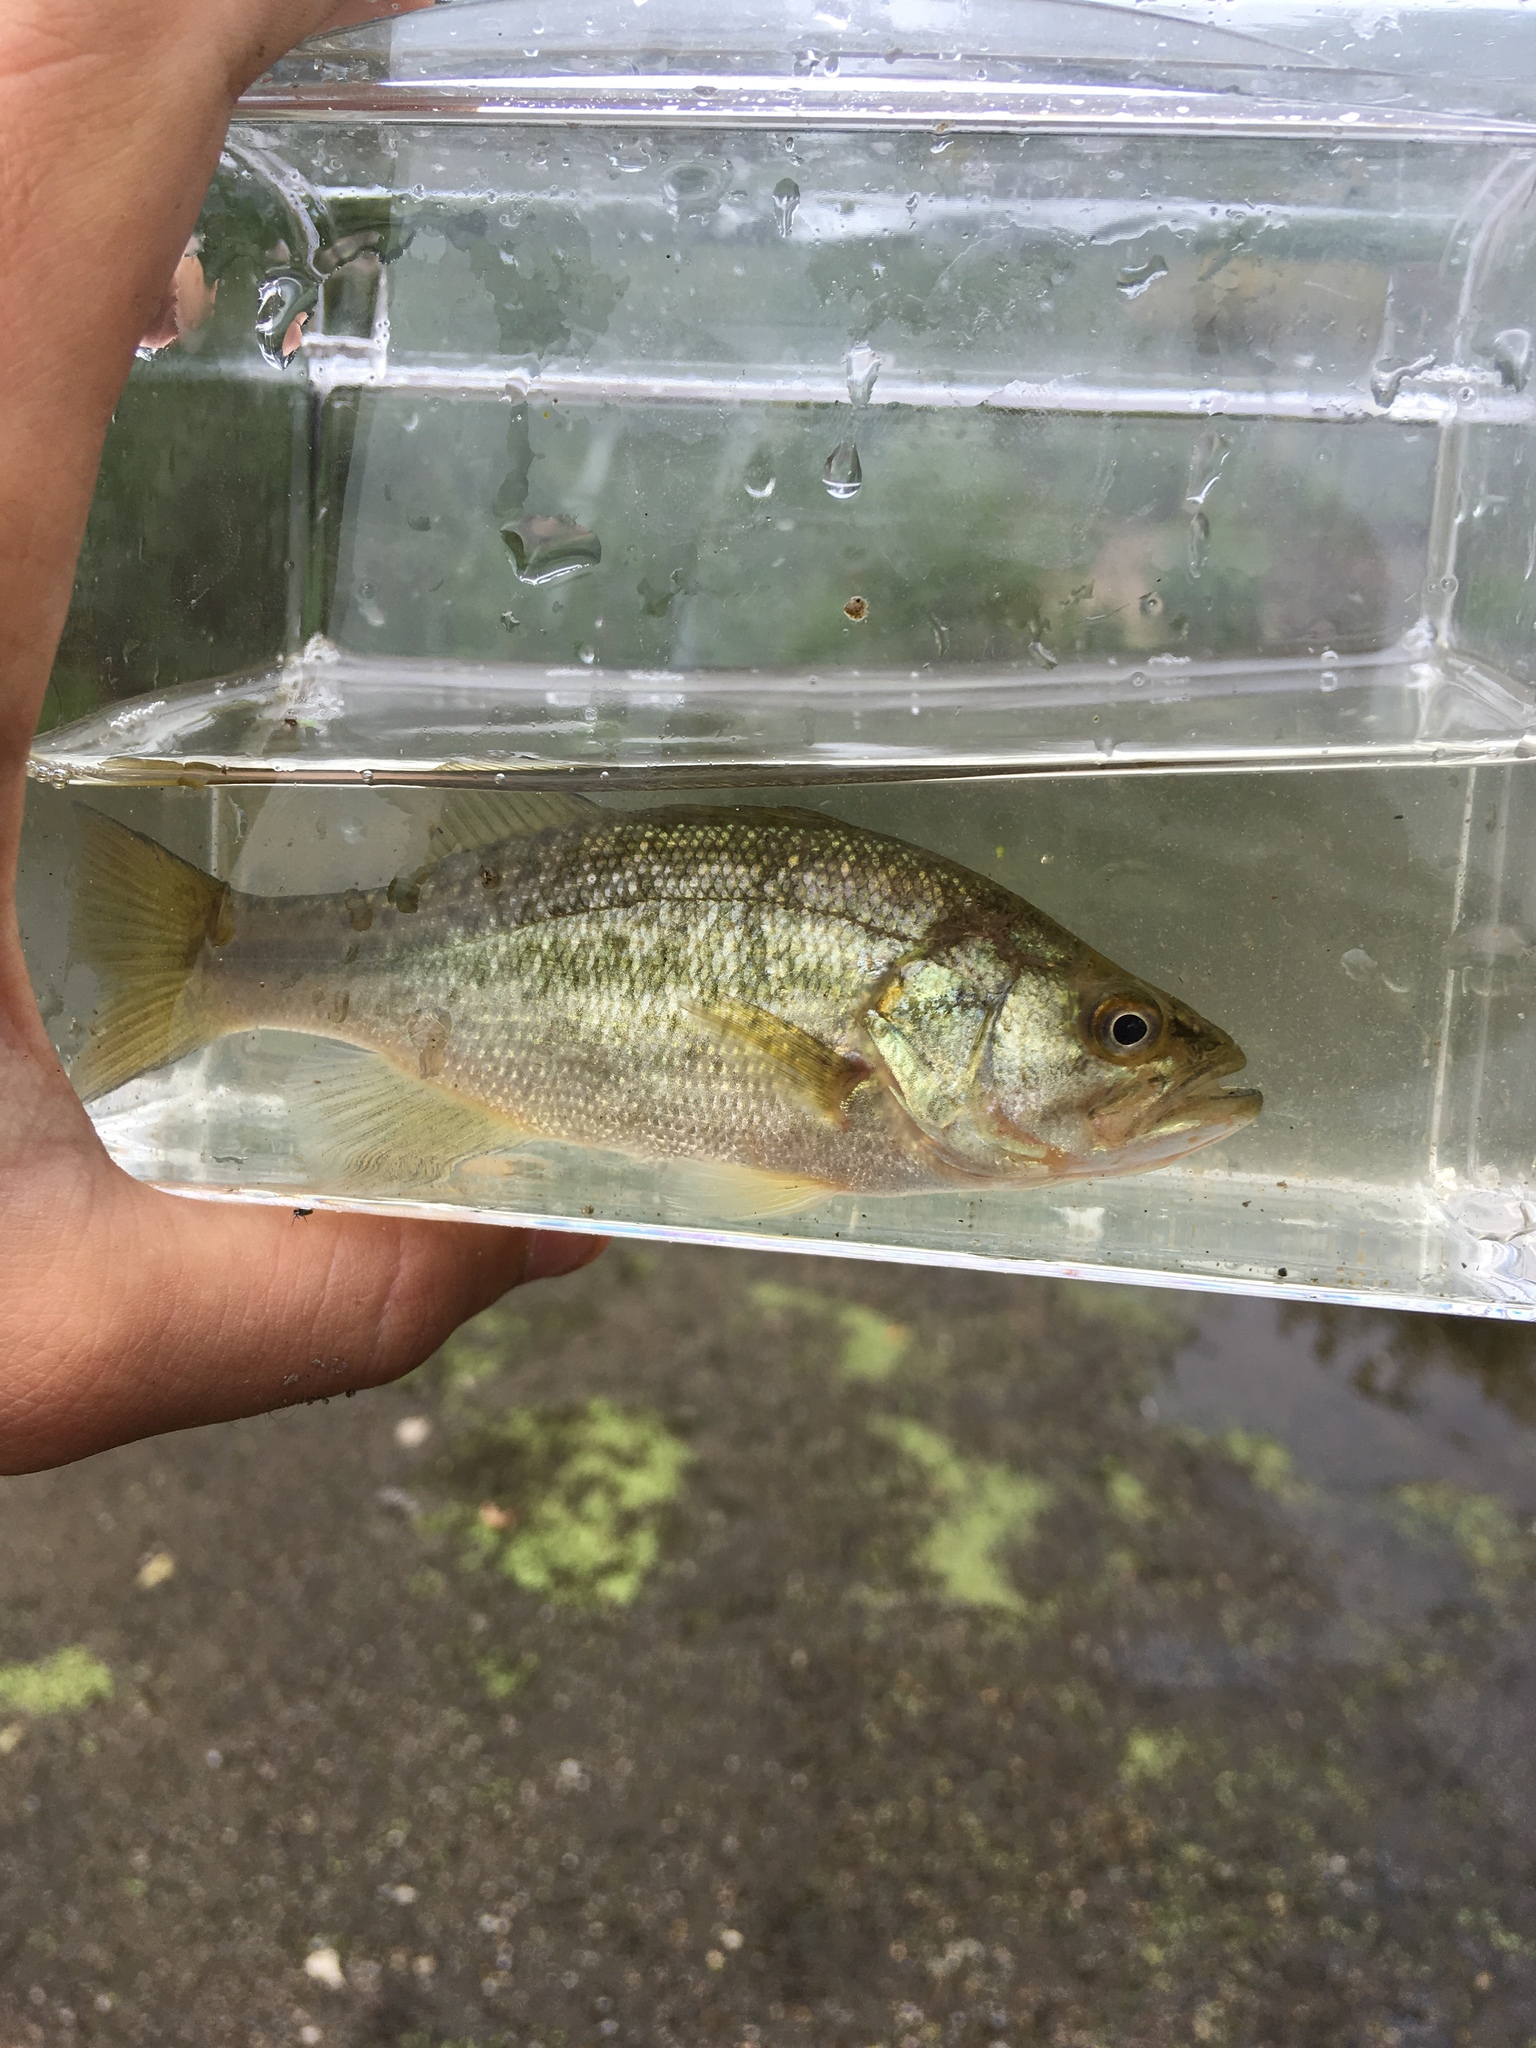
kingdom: Animalia
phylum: Chordata
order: Perciformes
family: Centrarchidae
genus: Micropterus
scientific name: Micropterus
